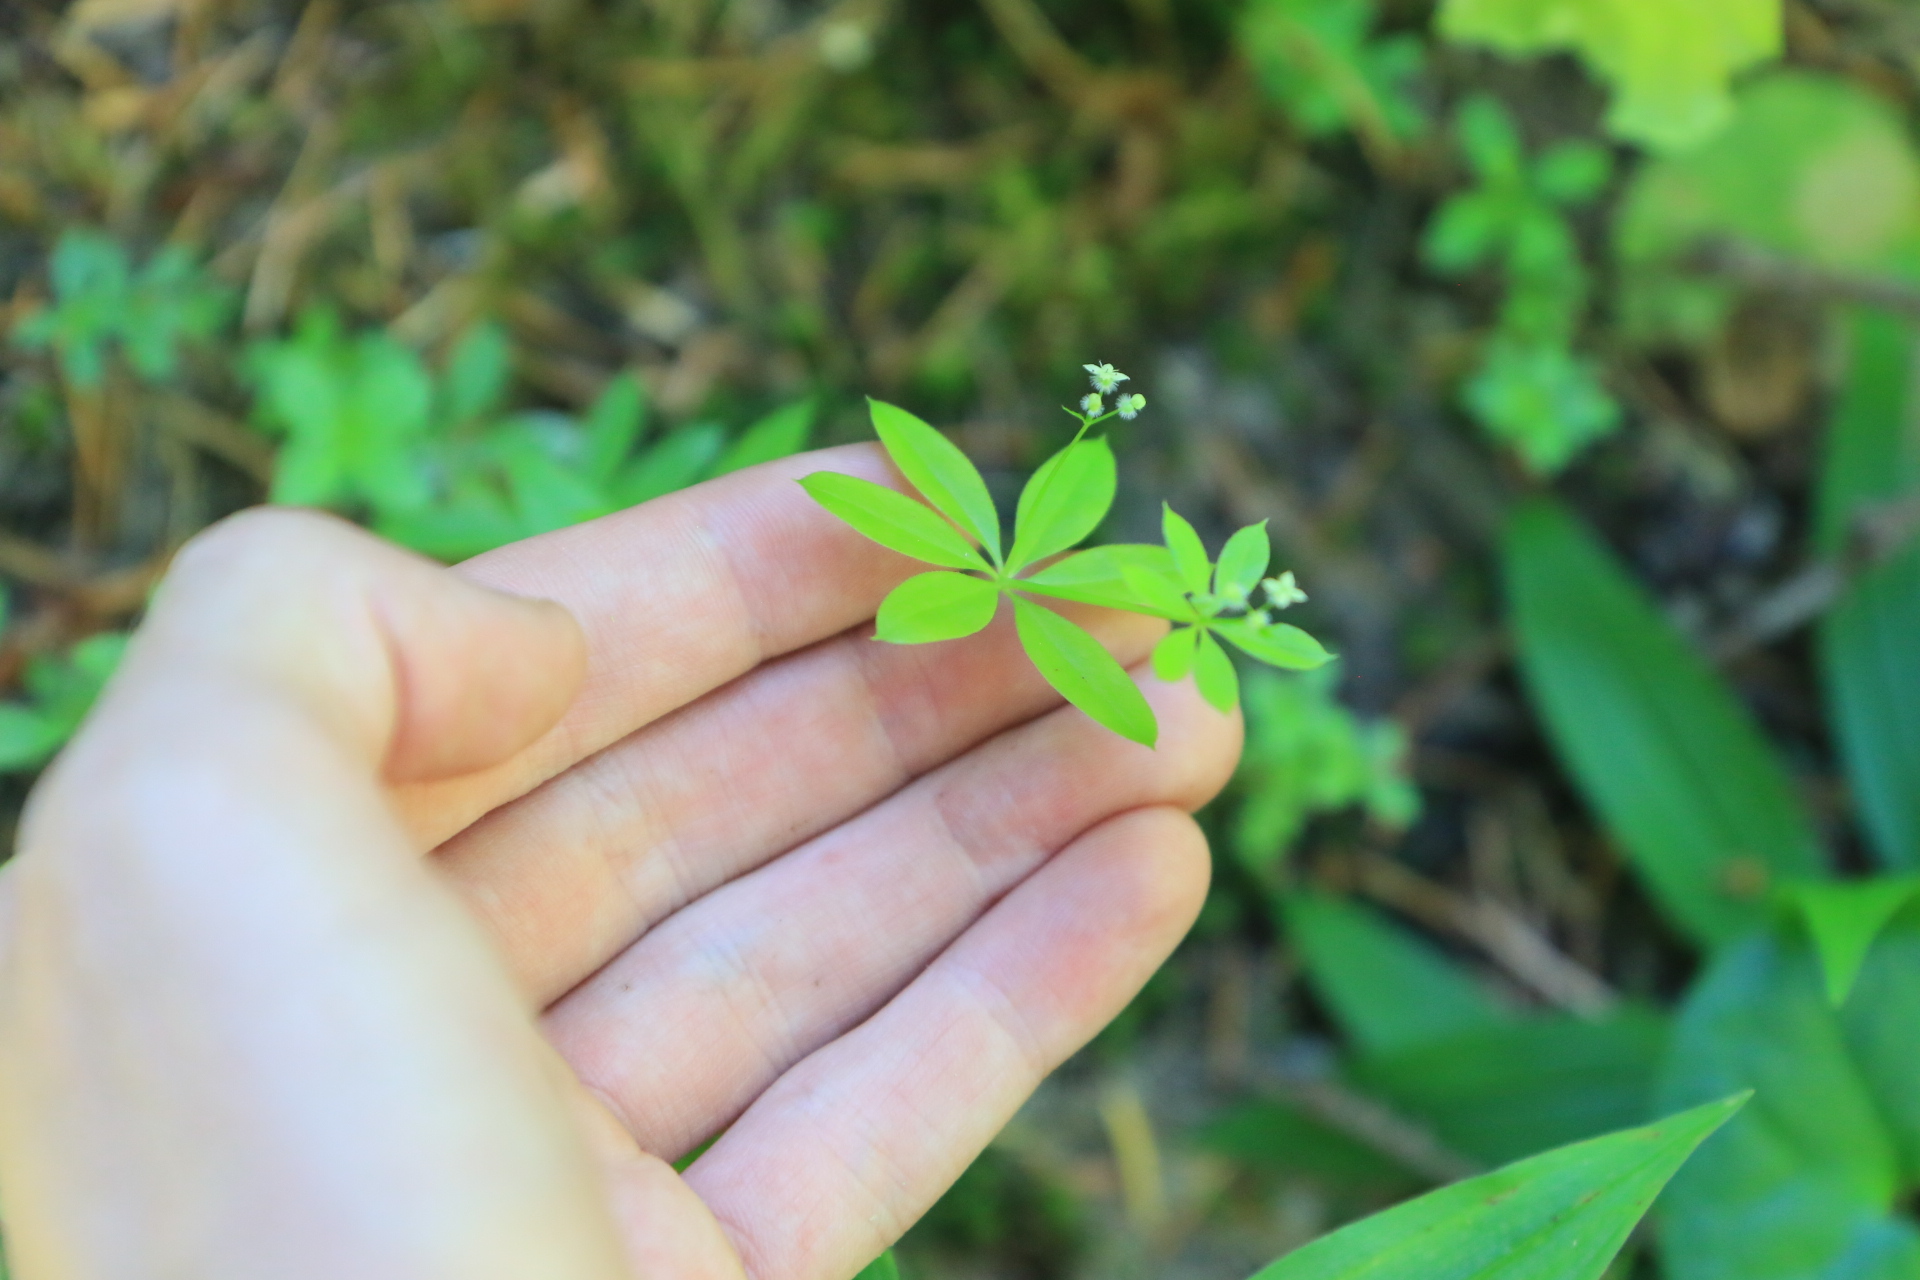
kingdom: Plantae
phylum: Tracheophyta
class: Magnoliopsida
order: Gentianales
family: Rubiaceae
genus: Galium
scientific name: Galium triflorum
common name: Fragrant bedstraw
